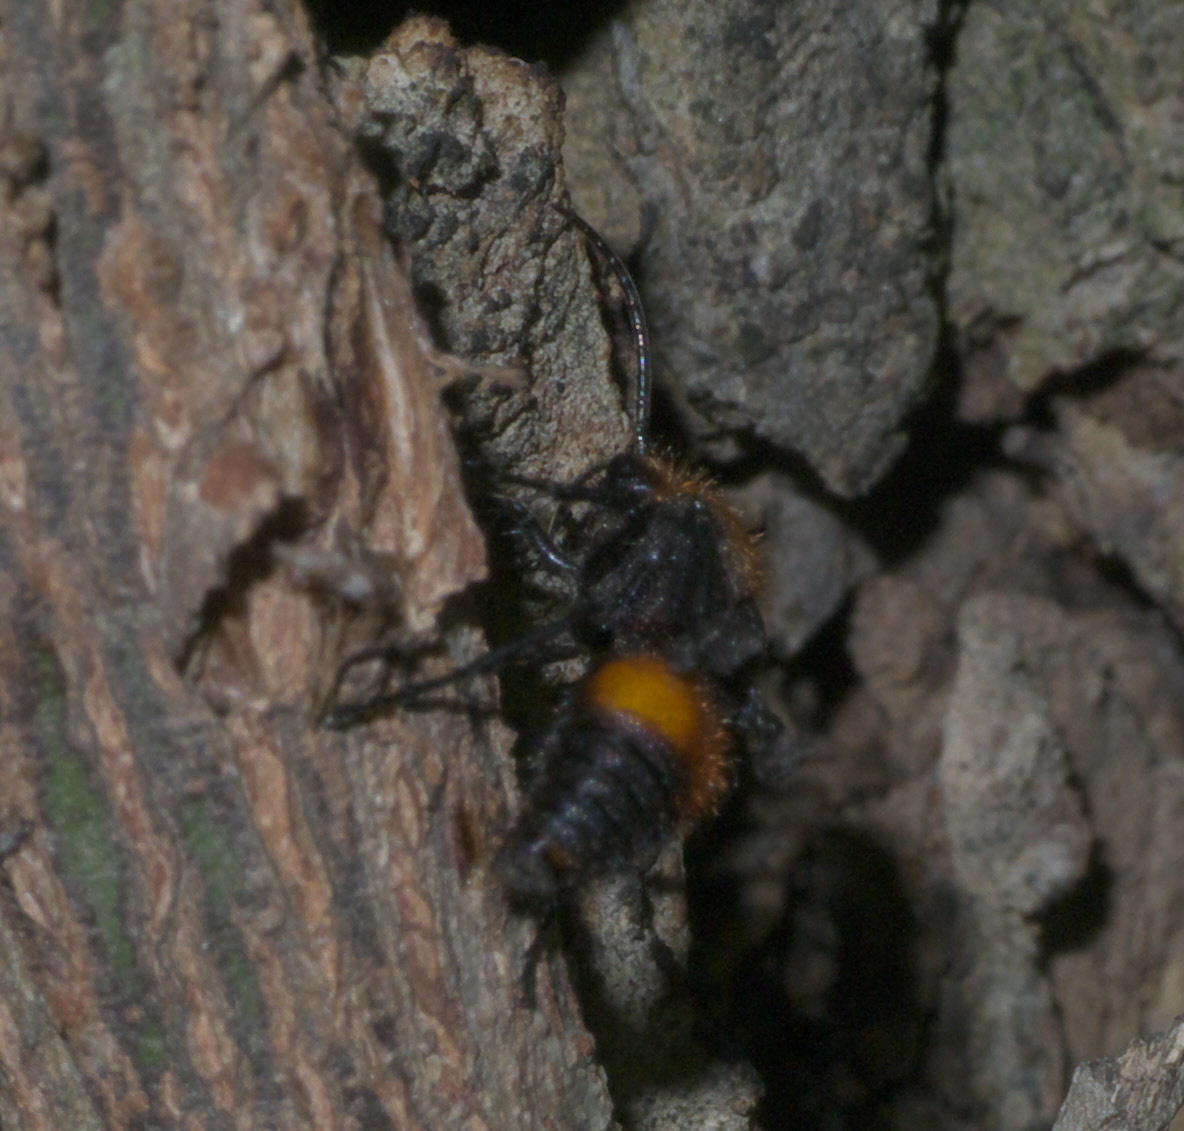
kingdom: Animalia
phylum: Arthropoda
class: Insecta
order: Hymenoptera
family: Mutillidae
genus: Dasymutilla
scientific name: Dasymutilla
